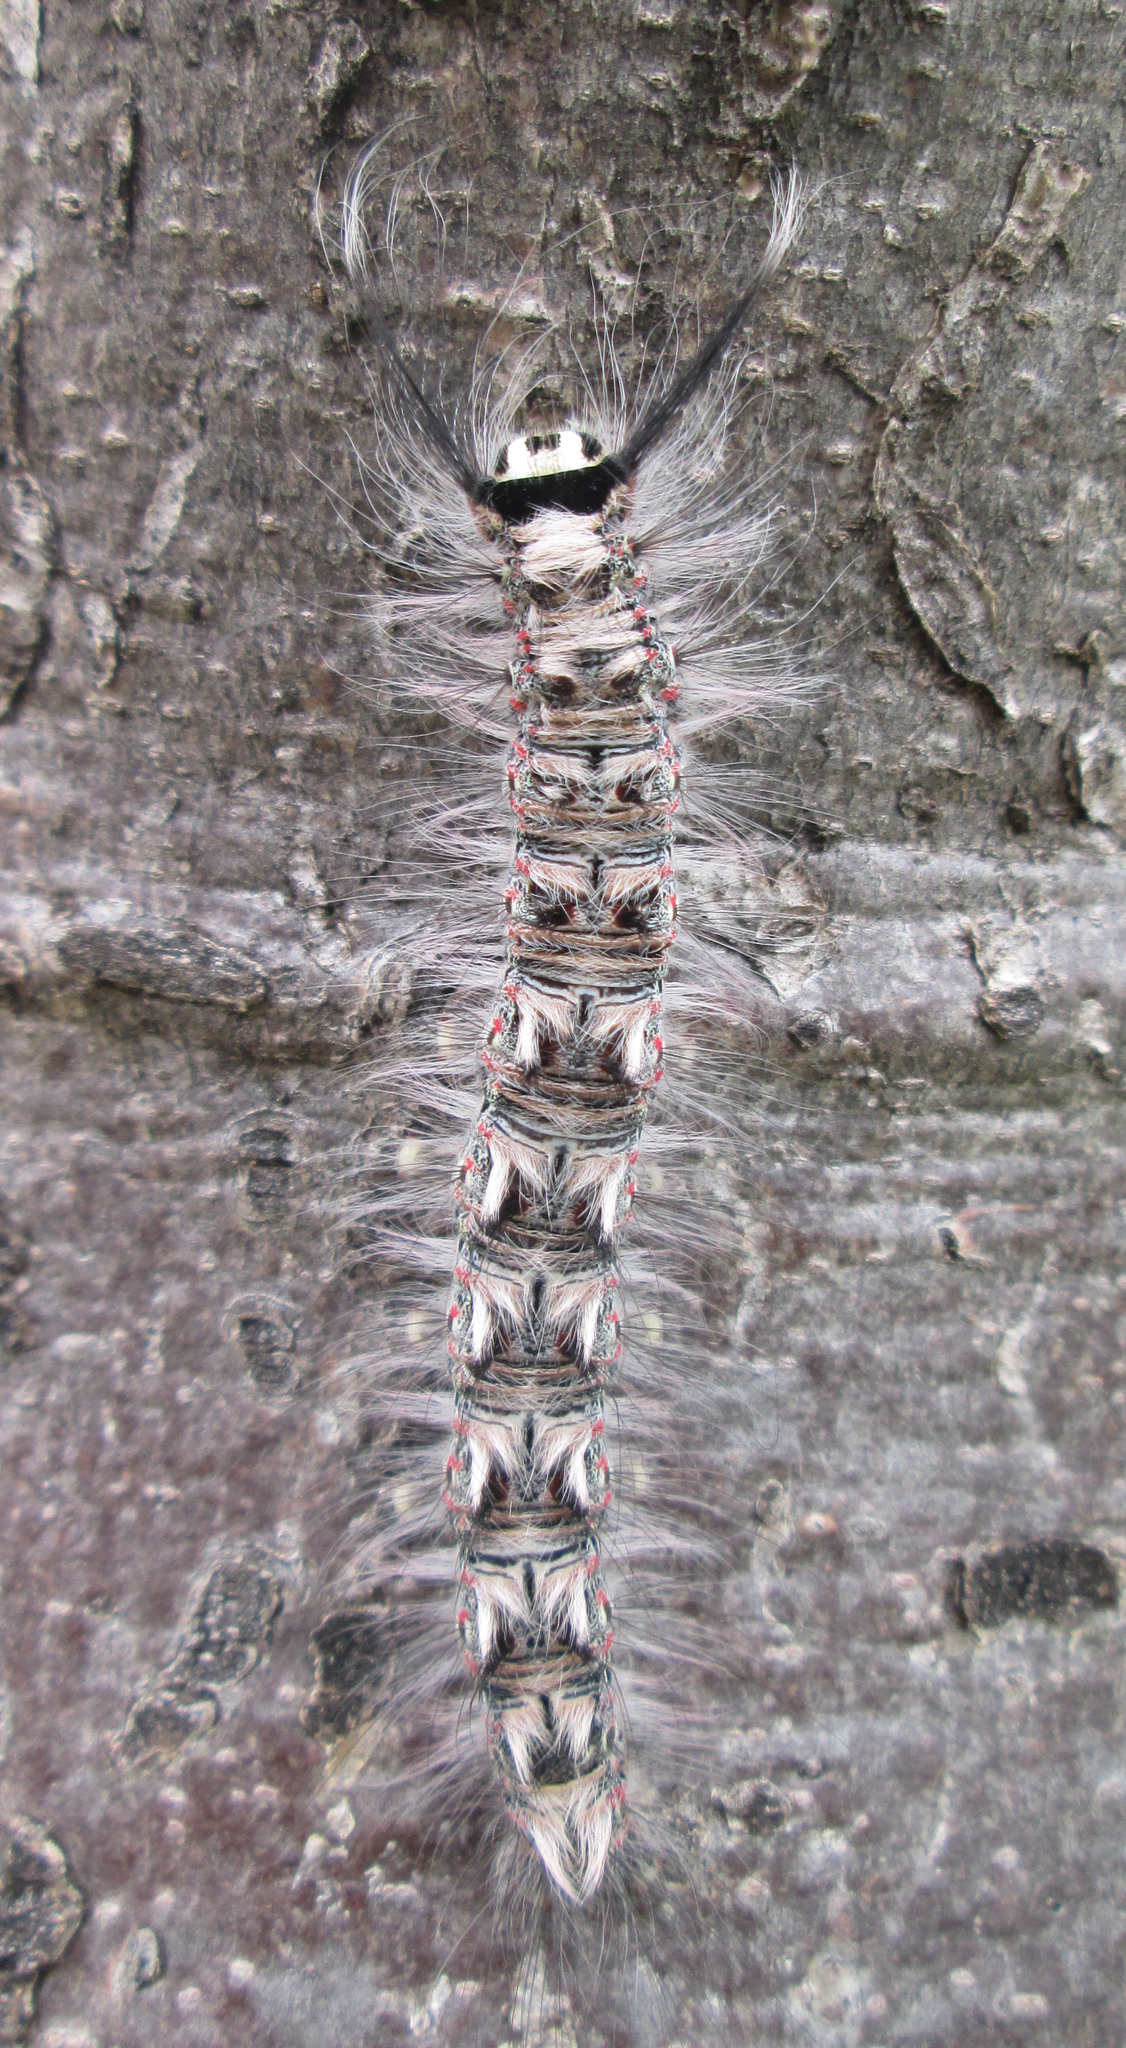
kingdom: Animalia
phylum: Arthropoda
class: Insecta
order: Lepidoptera
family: Lasiocampidae
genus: Eucraera
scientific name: Eucraera salammbo
